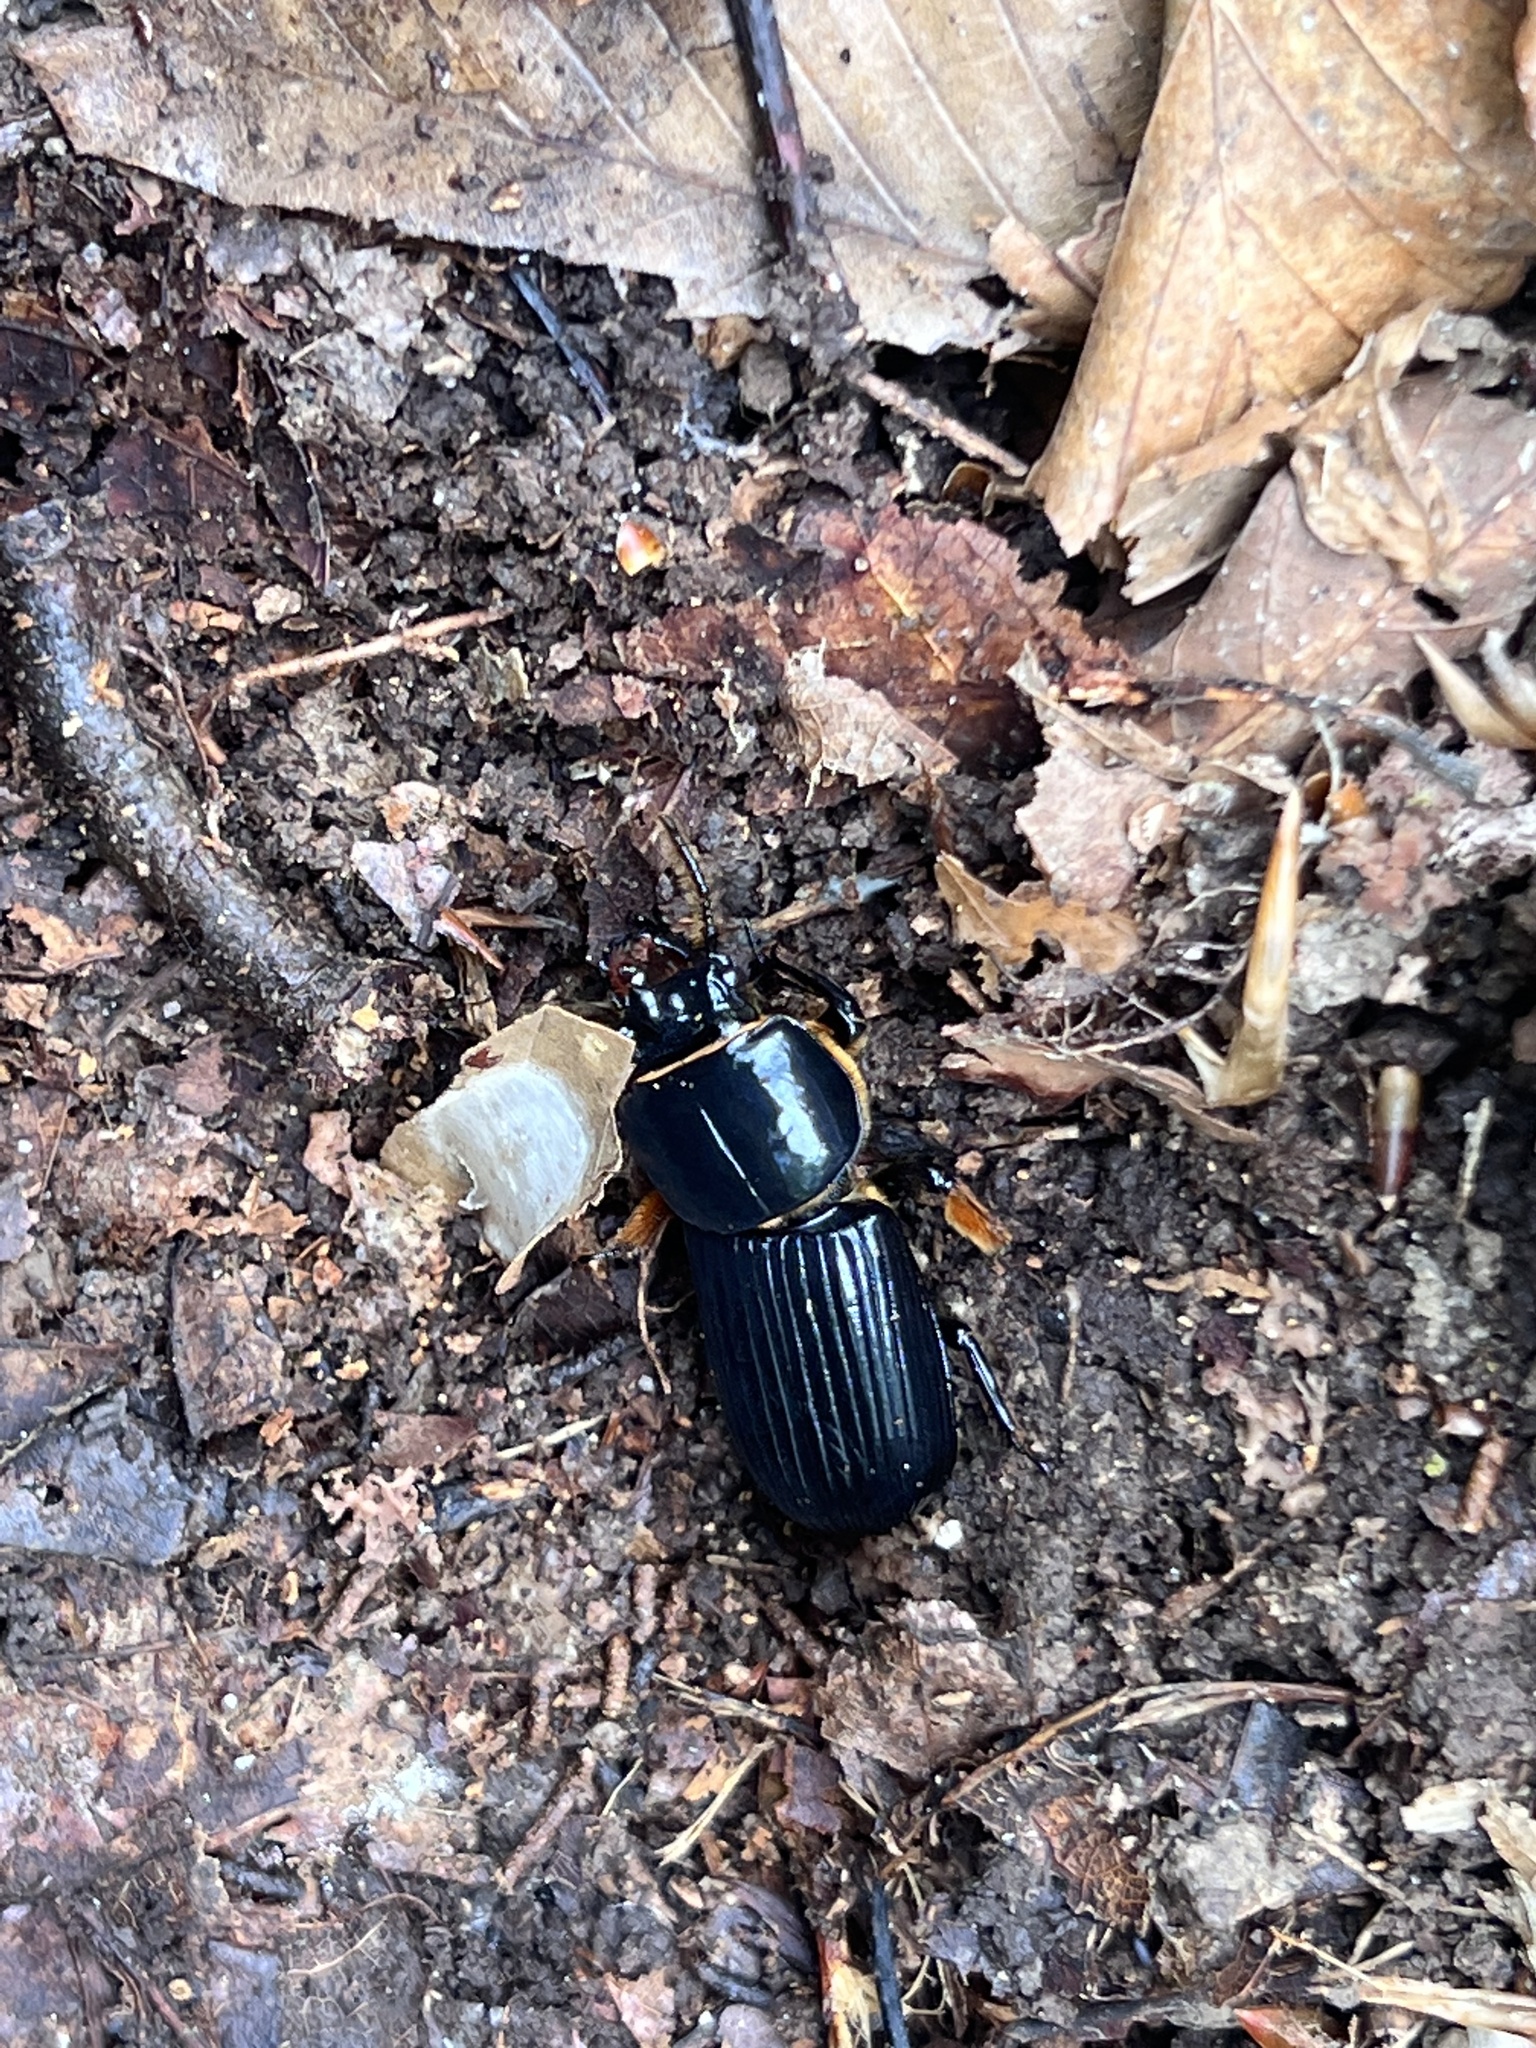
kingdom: Animalia
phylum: Arthropoda
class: Insecta
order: Coleoptera
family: Passalidae
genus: Odontotaenius
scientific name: Odontotaenius disjunctus
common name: Patent leather beetle
